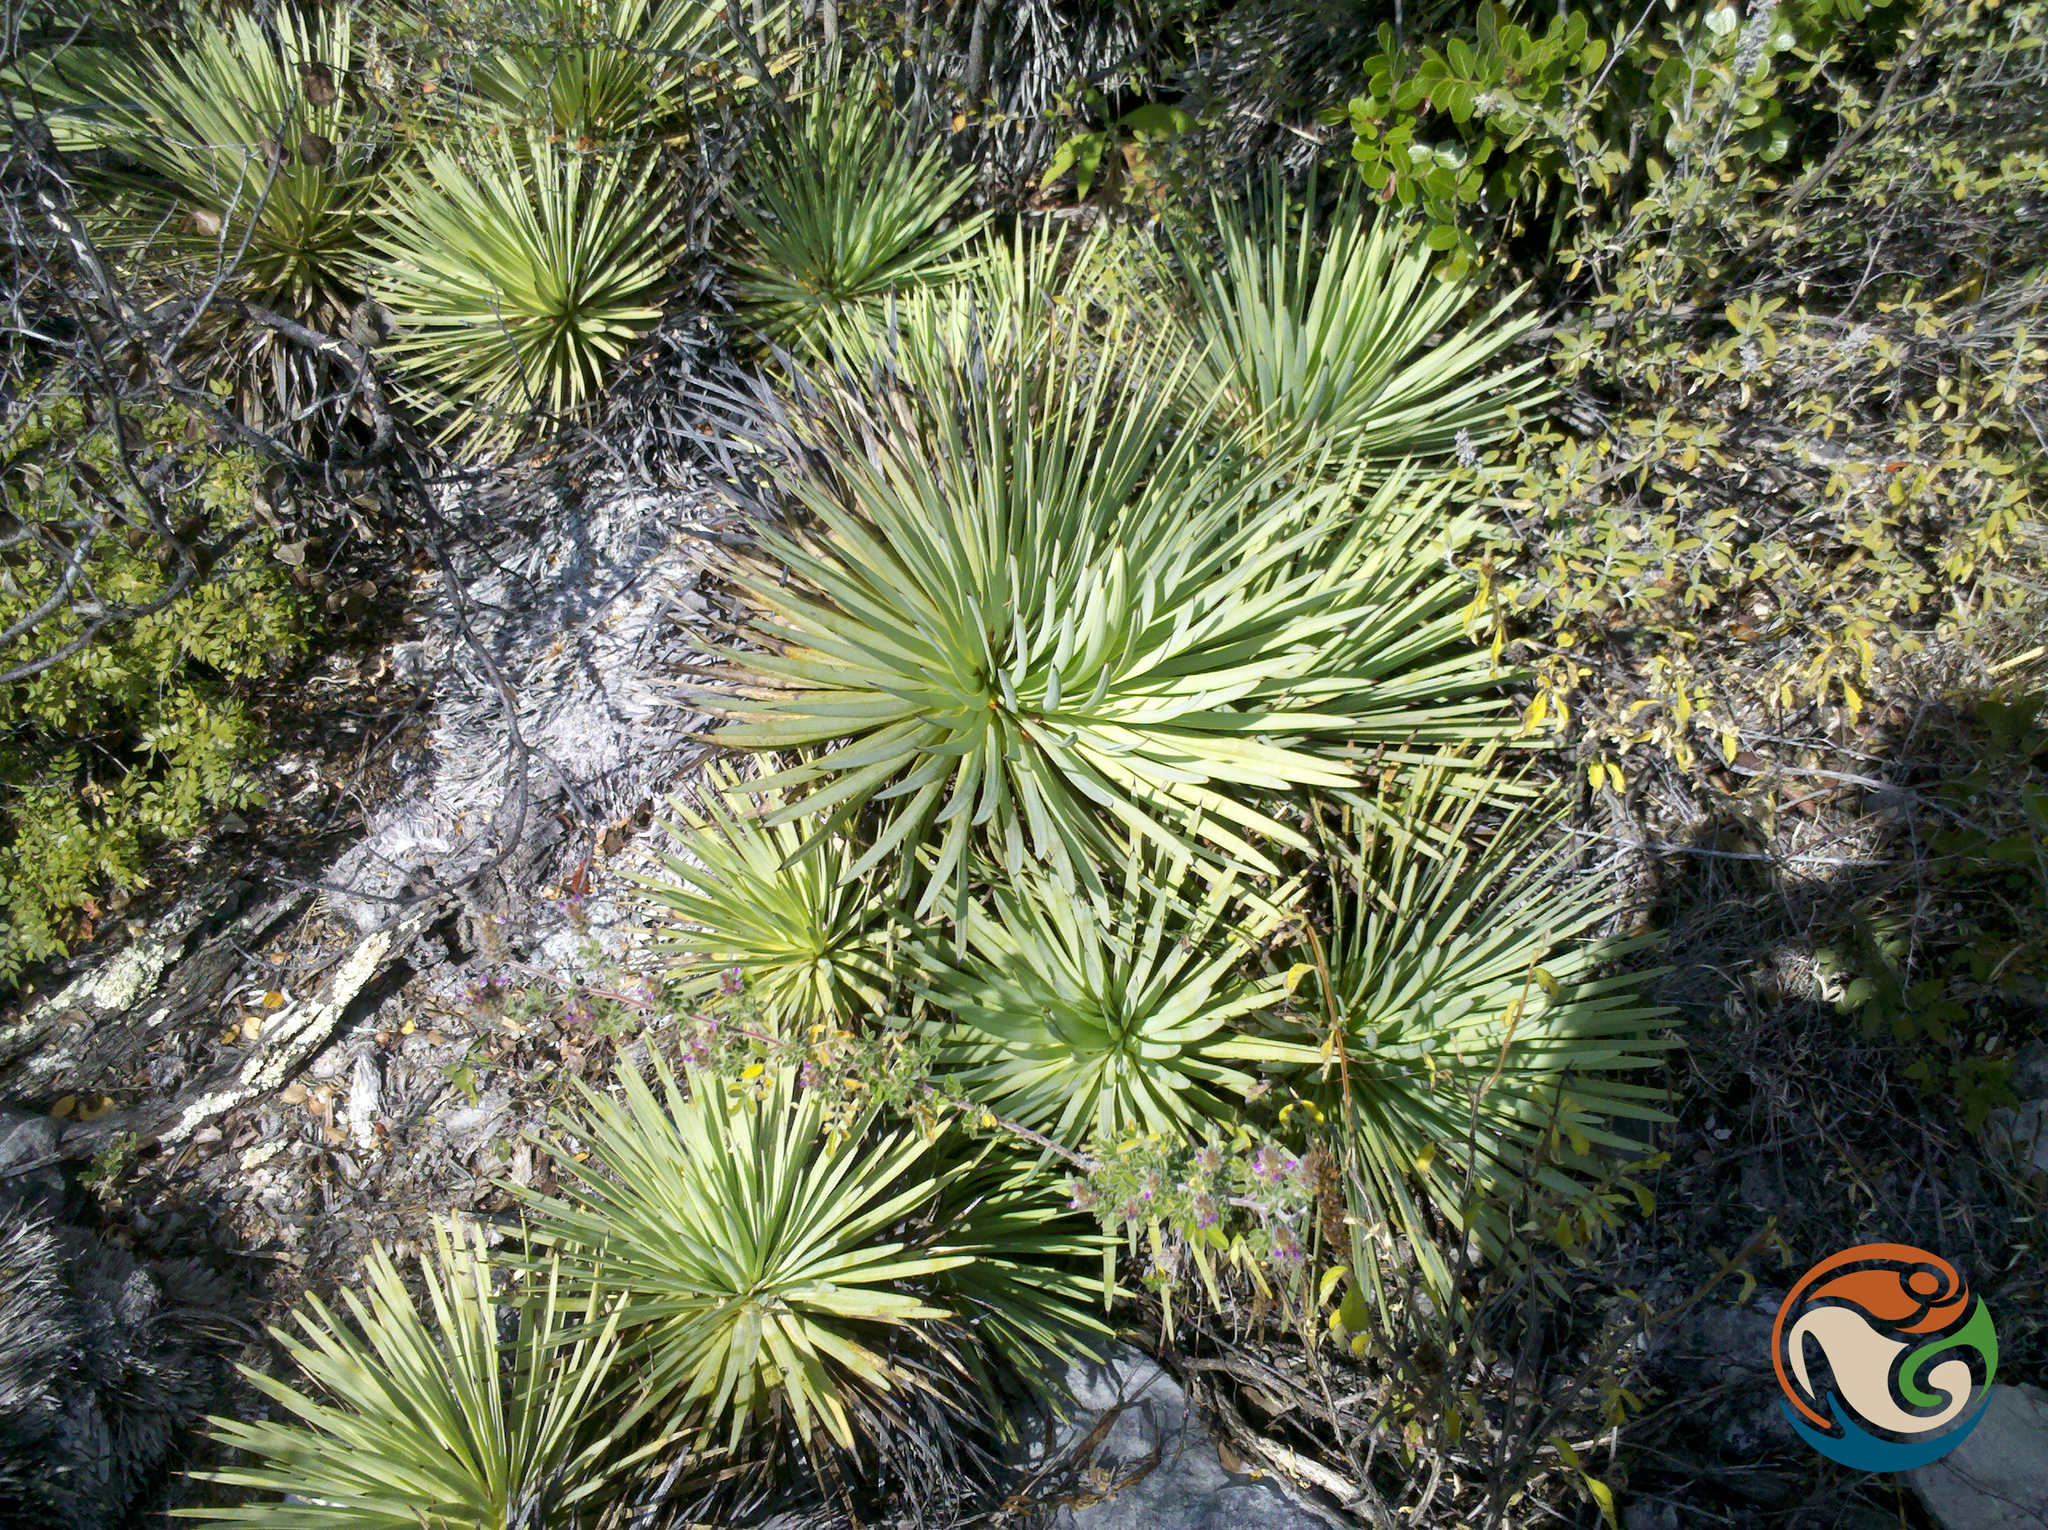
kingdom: Plantae
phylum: Tracheophyta
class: Liliopsida
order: Asparagales
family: Asparagaceae
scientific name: Asparagaceae
